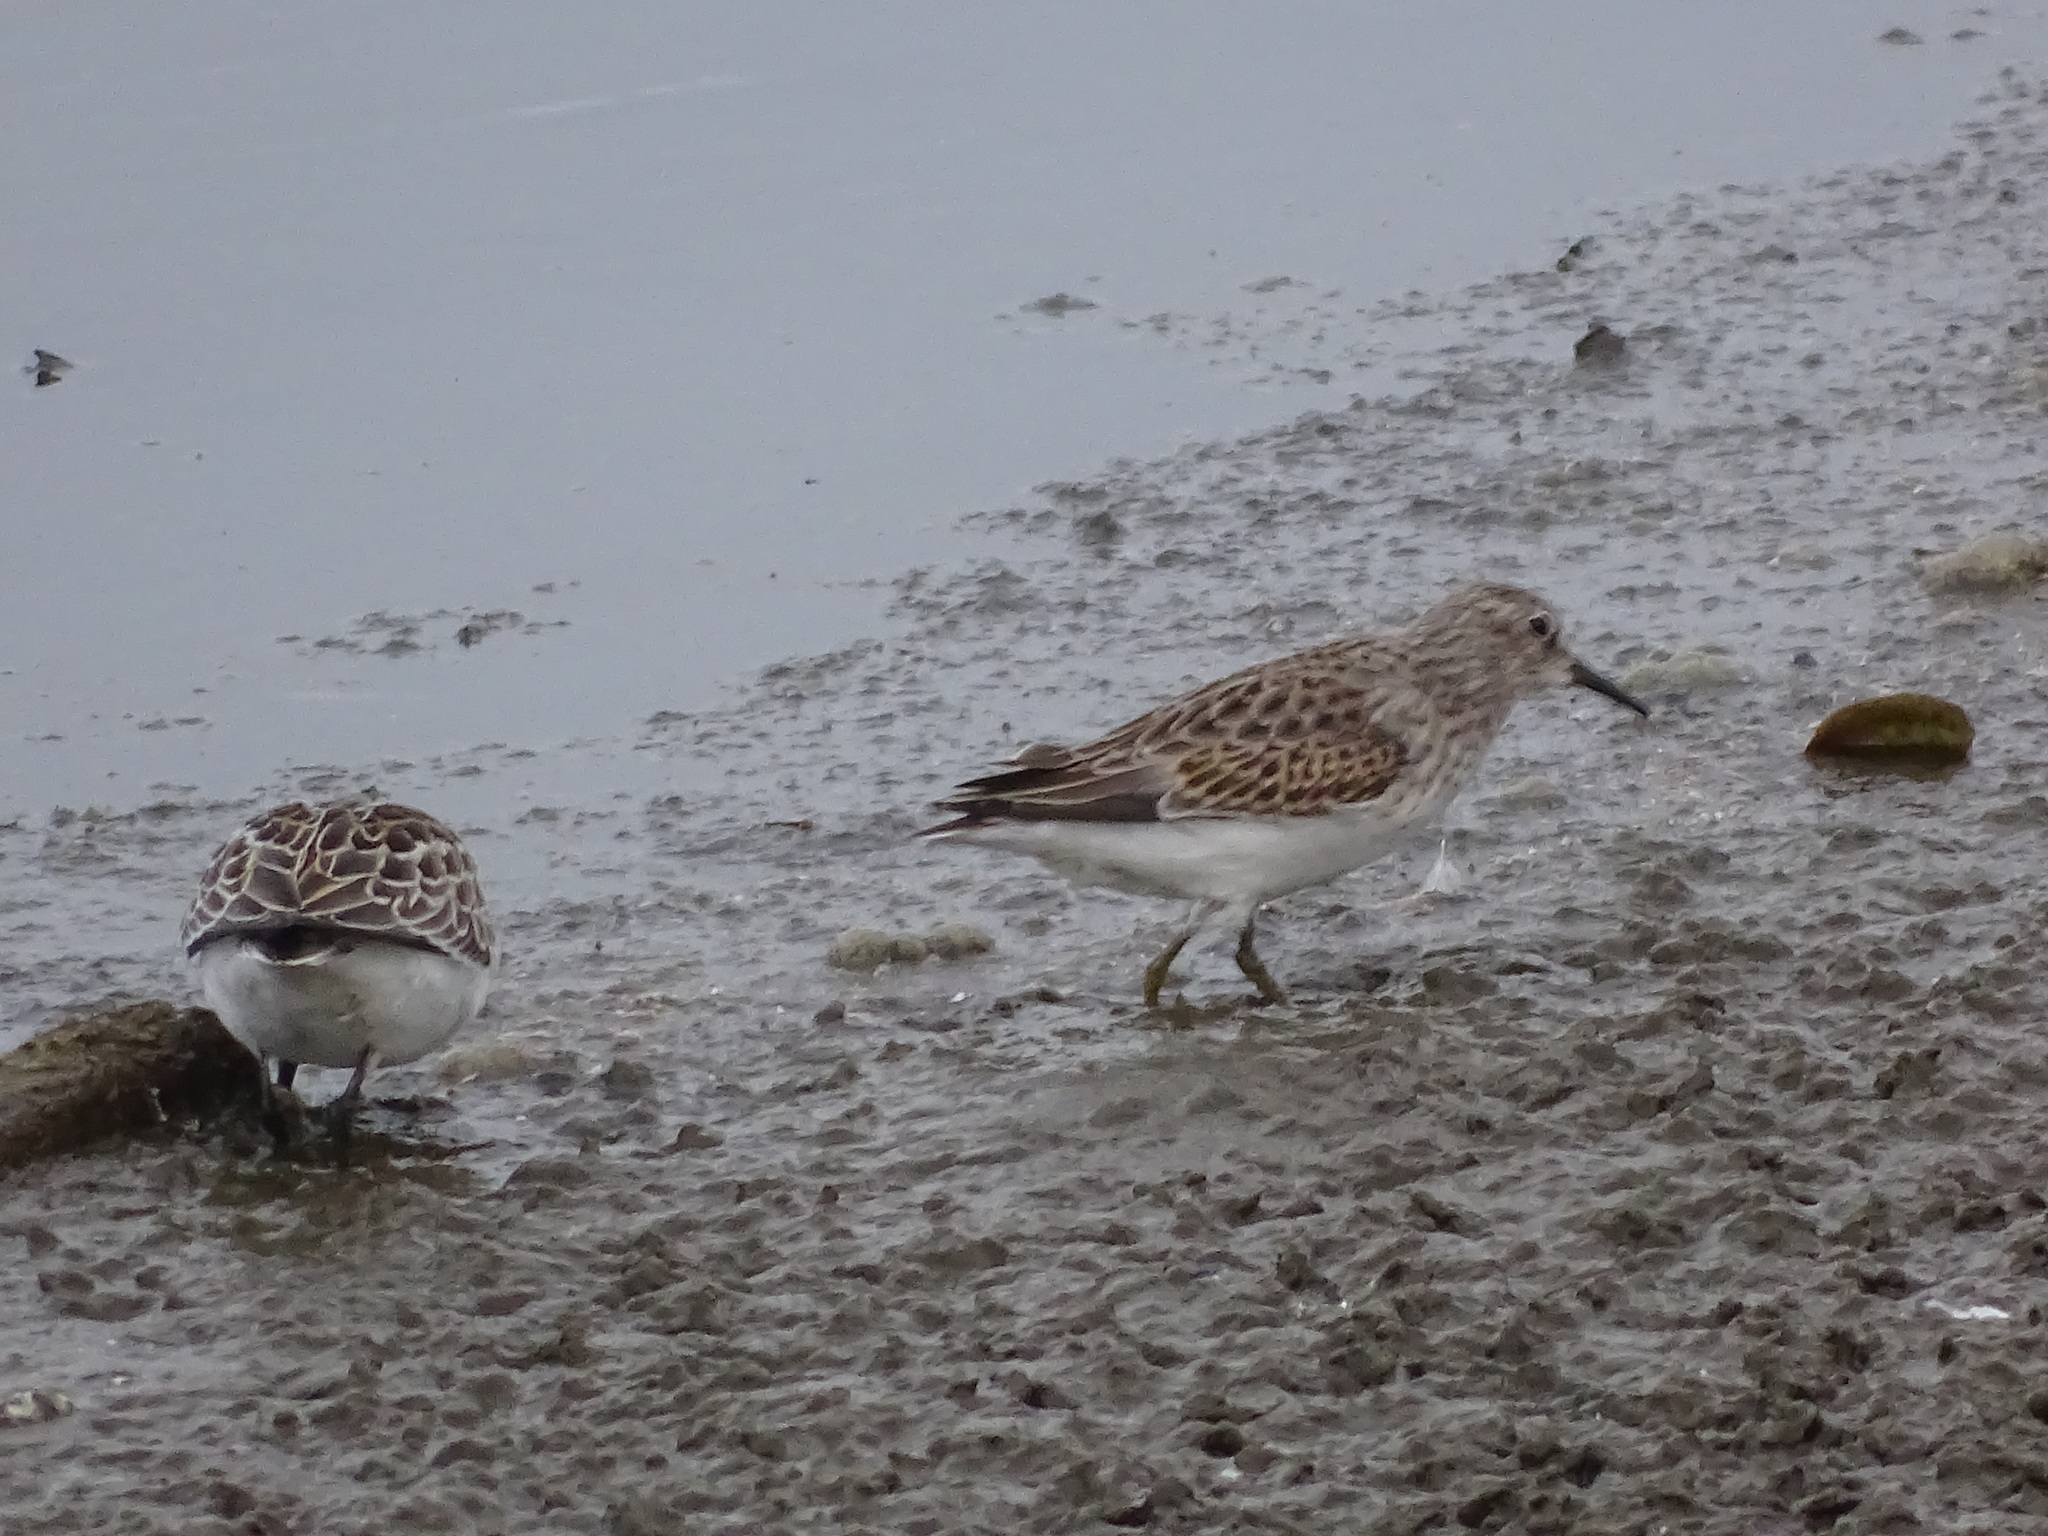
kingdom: Animalia
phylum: Chordata
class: Aves
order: Charadriiformes
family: Scolopacidae
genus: Calidris
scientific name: Calidris minutilla
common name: Least sandpiper
